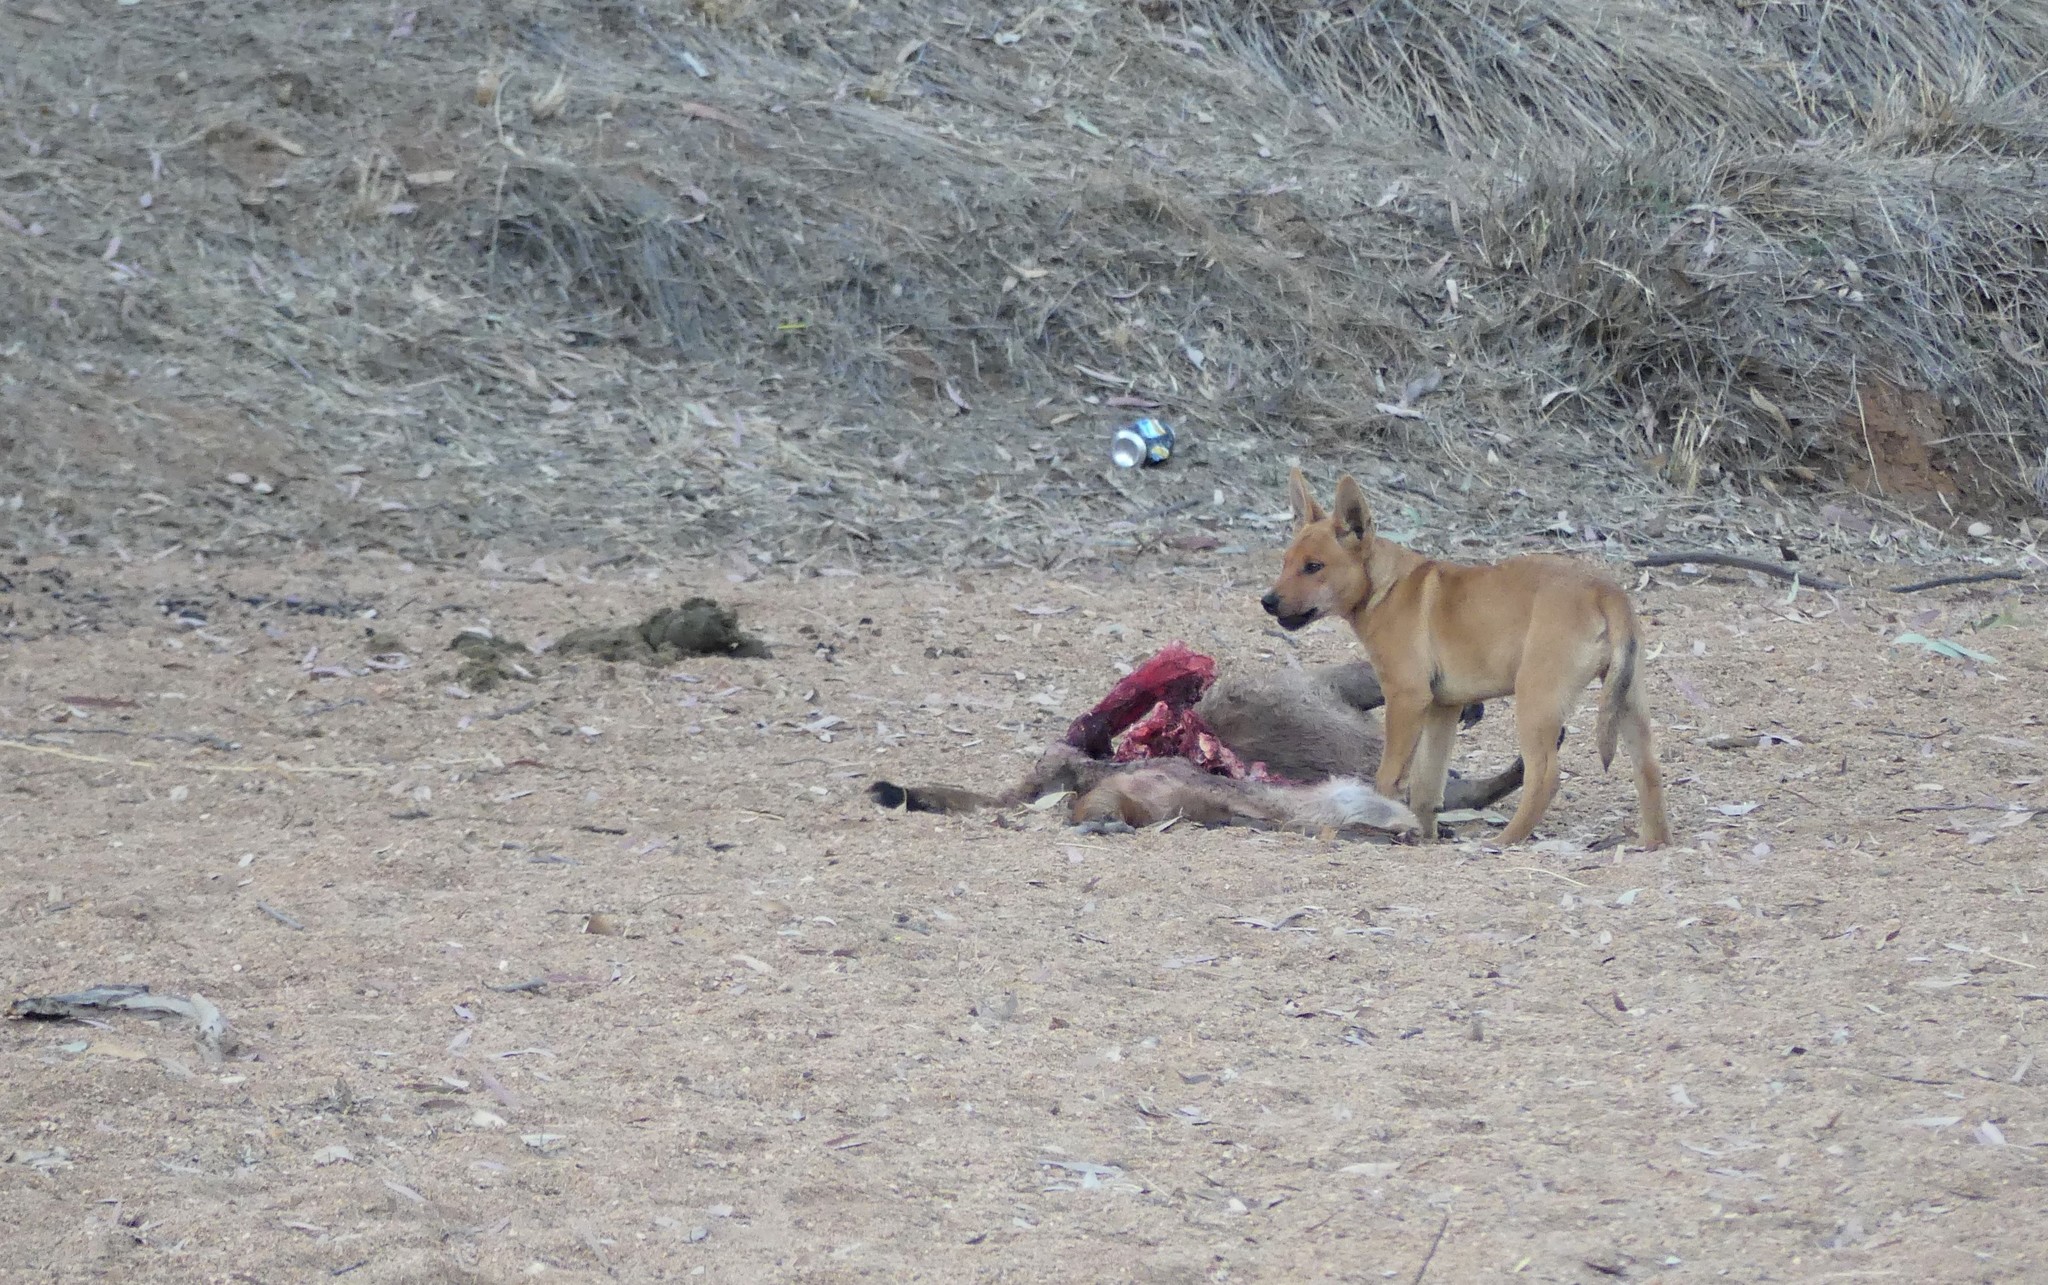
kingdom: Animalia
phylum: Chordata
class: Mammalia
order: Carnivora
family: Canidae
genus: Canis
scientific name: Canis lupus
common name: Gray wolf
